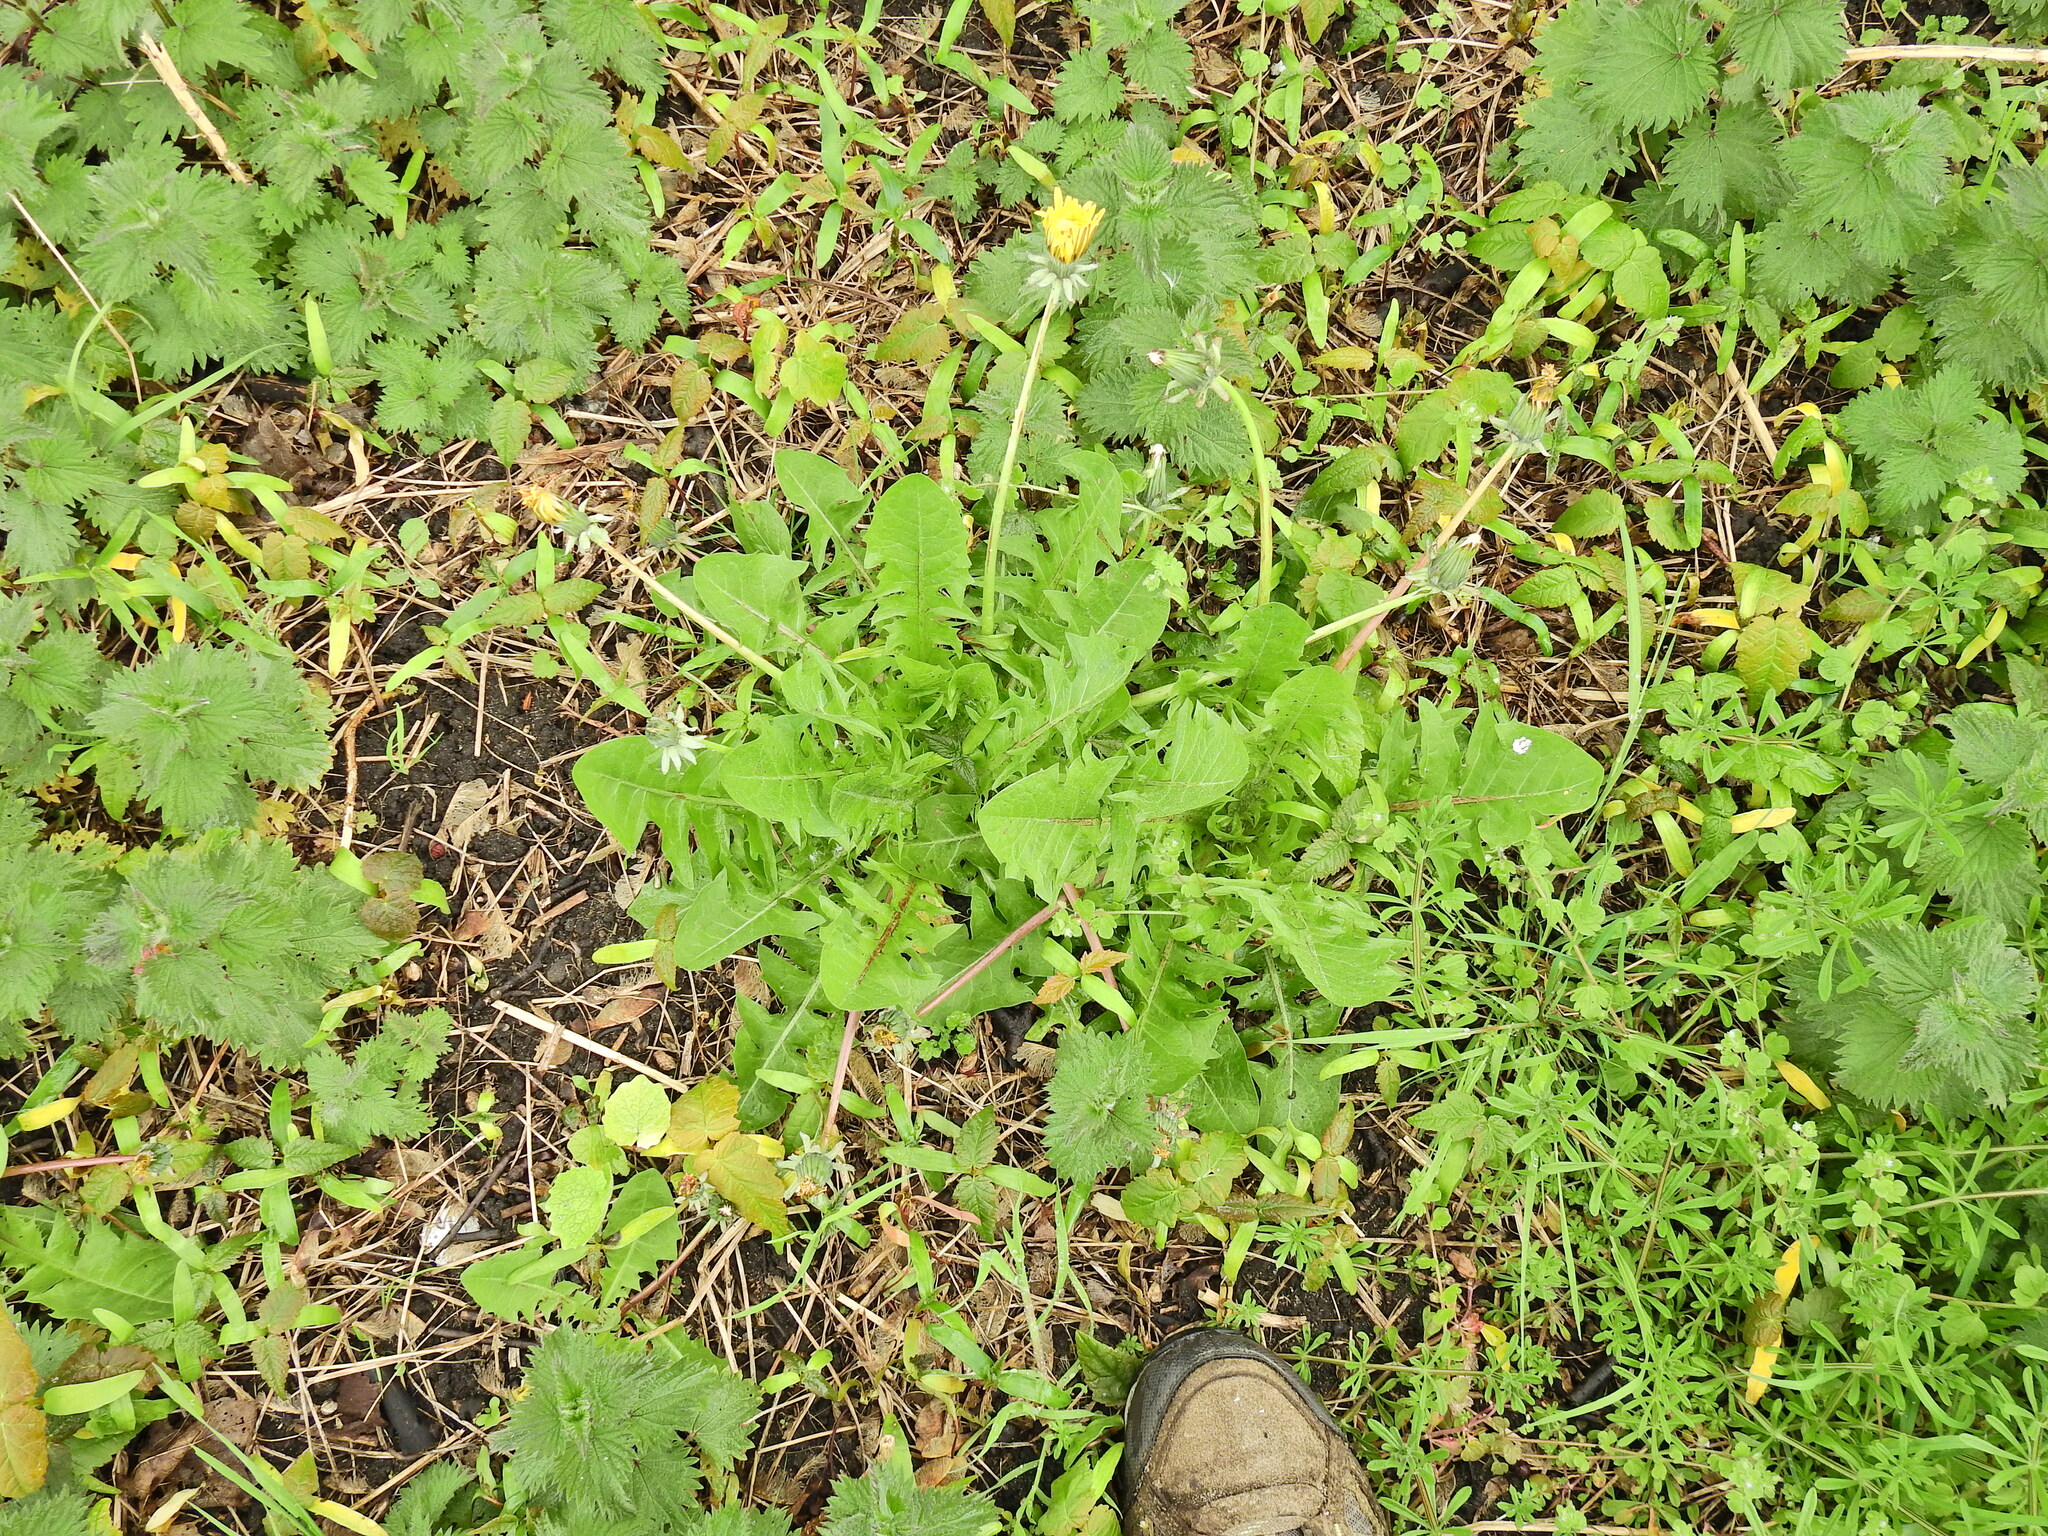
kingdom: Plantae
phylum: Tracheophyta
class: Magnoliopsida
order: Asterales
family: Asteraceae
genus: Taraxacum
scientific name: Taraxacum officinale
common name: Common dandelion
